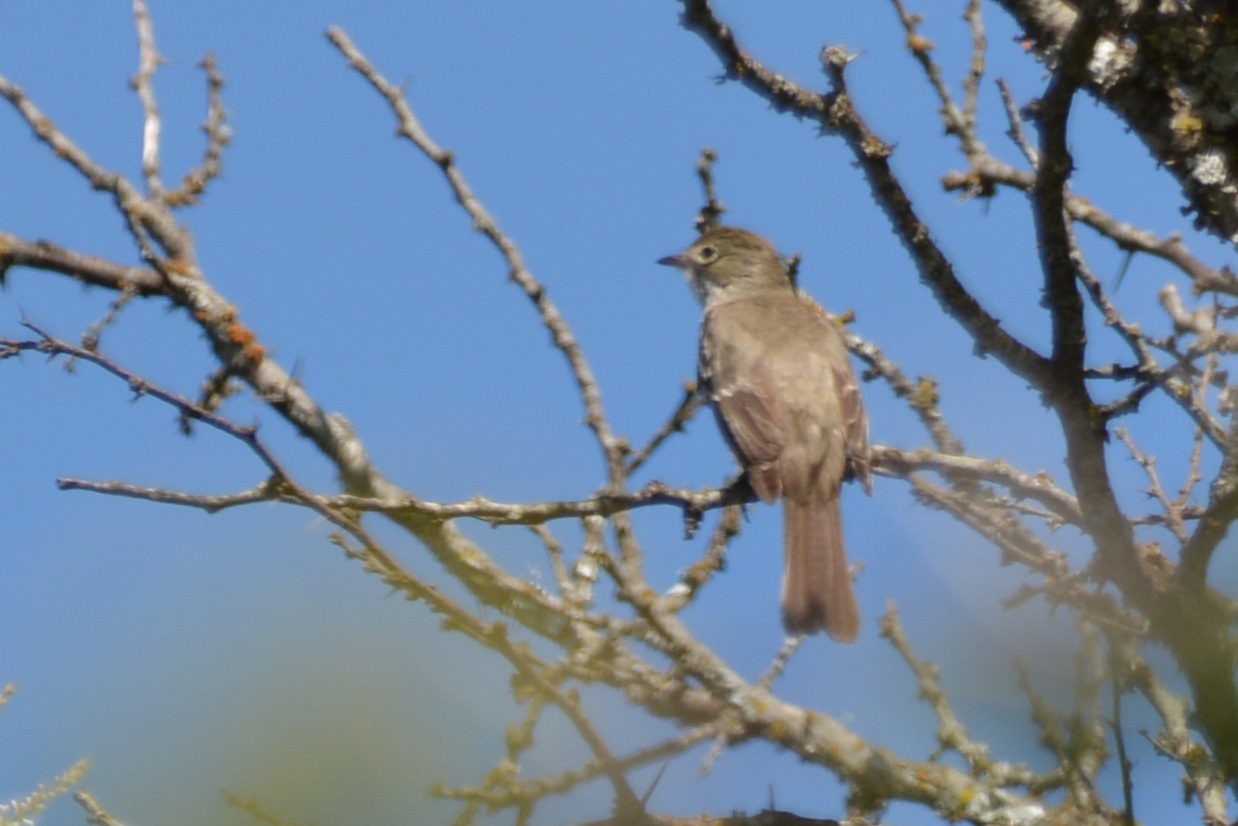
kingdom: Animalia
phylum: Chordata
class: Aves
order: Passeriformes
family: Tyrannidae
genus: Elaenia
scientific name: Elaenia parvirostris
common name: Small-billed elaenia
